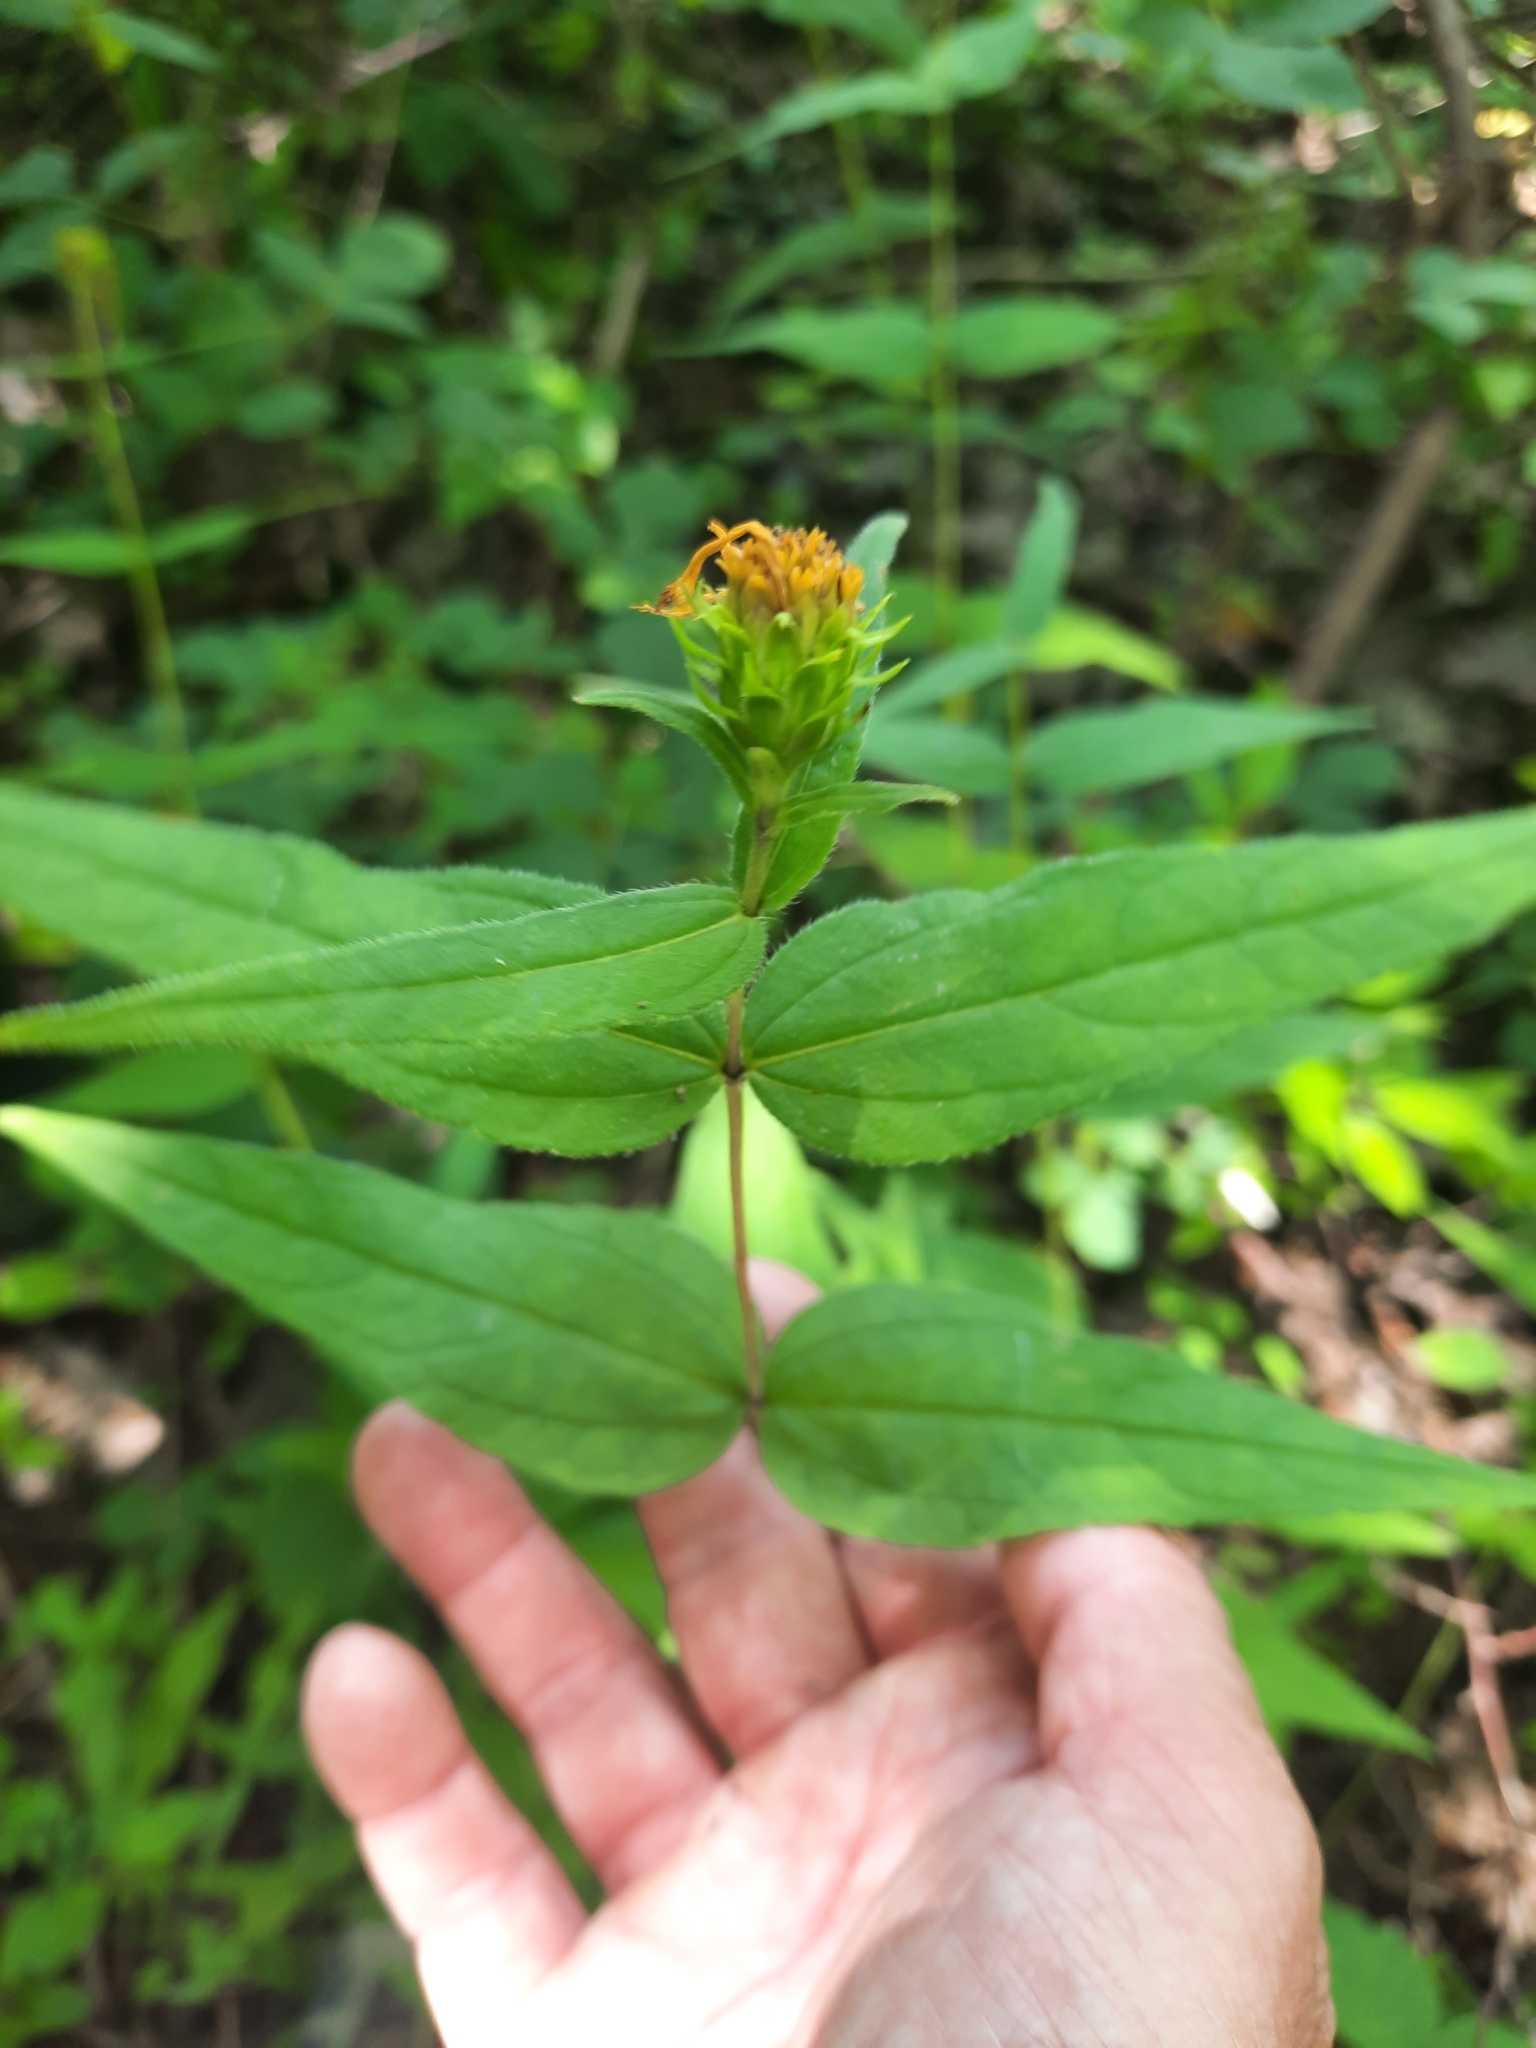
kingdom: Plantae
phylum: Tracheophyta
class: Magnoliopsida
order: Asterales
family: Asteraceae
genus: Helianthus
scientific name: Helianthus divaricatus
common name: Divergent sunflower
